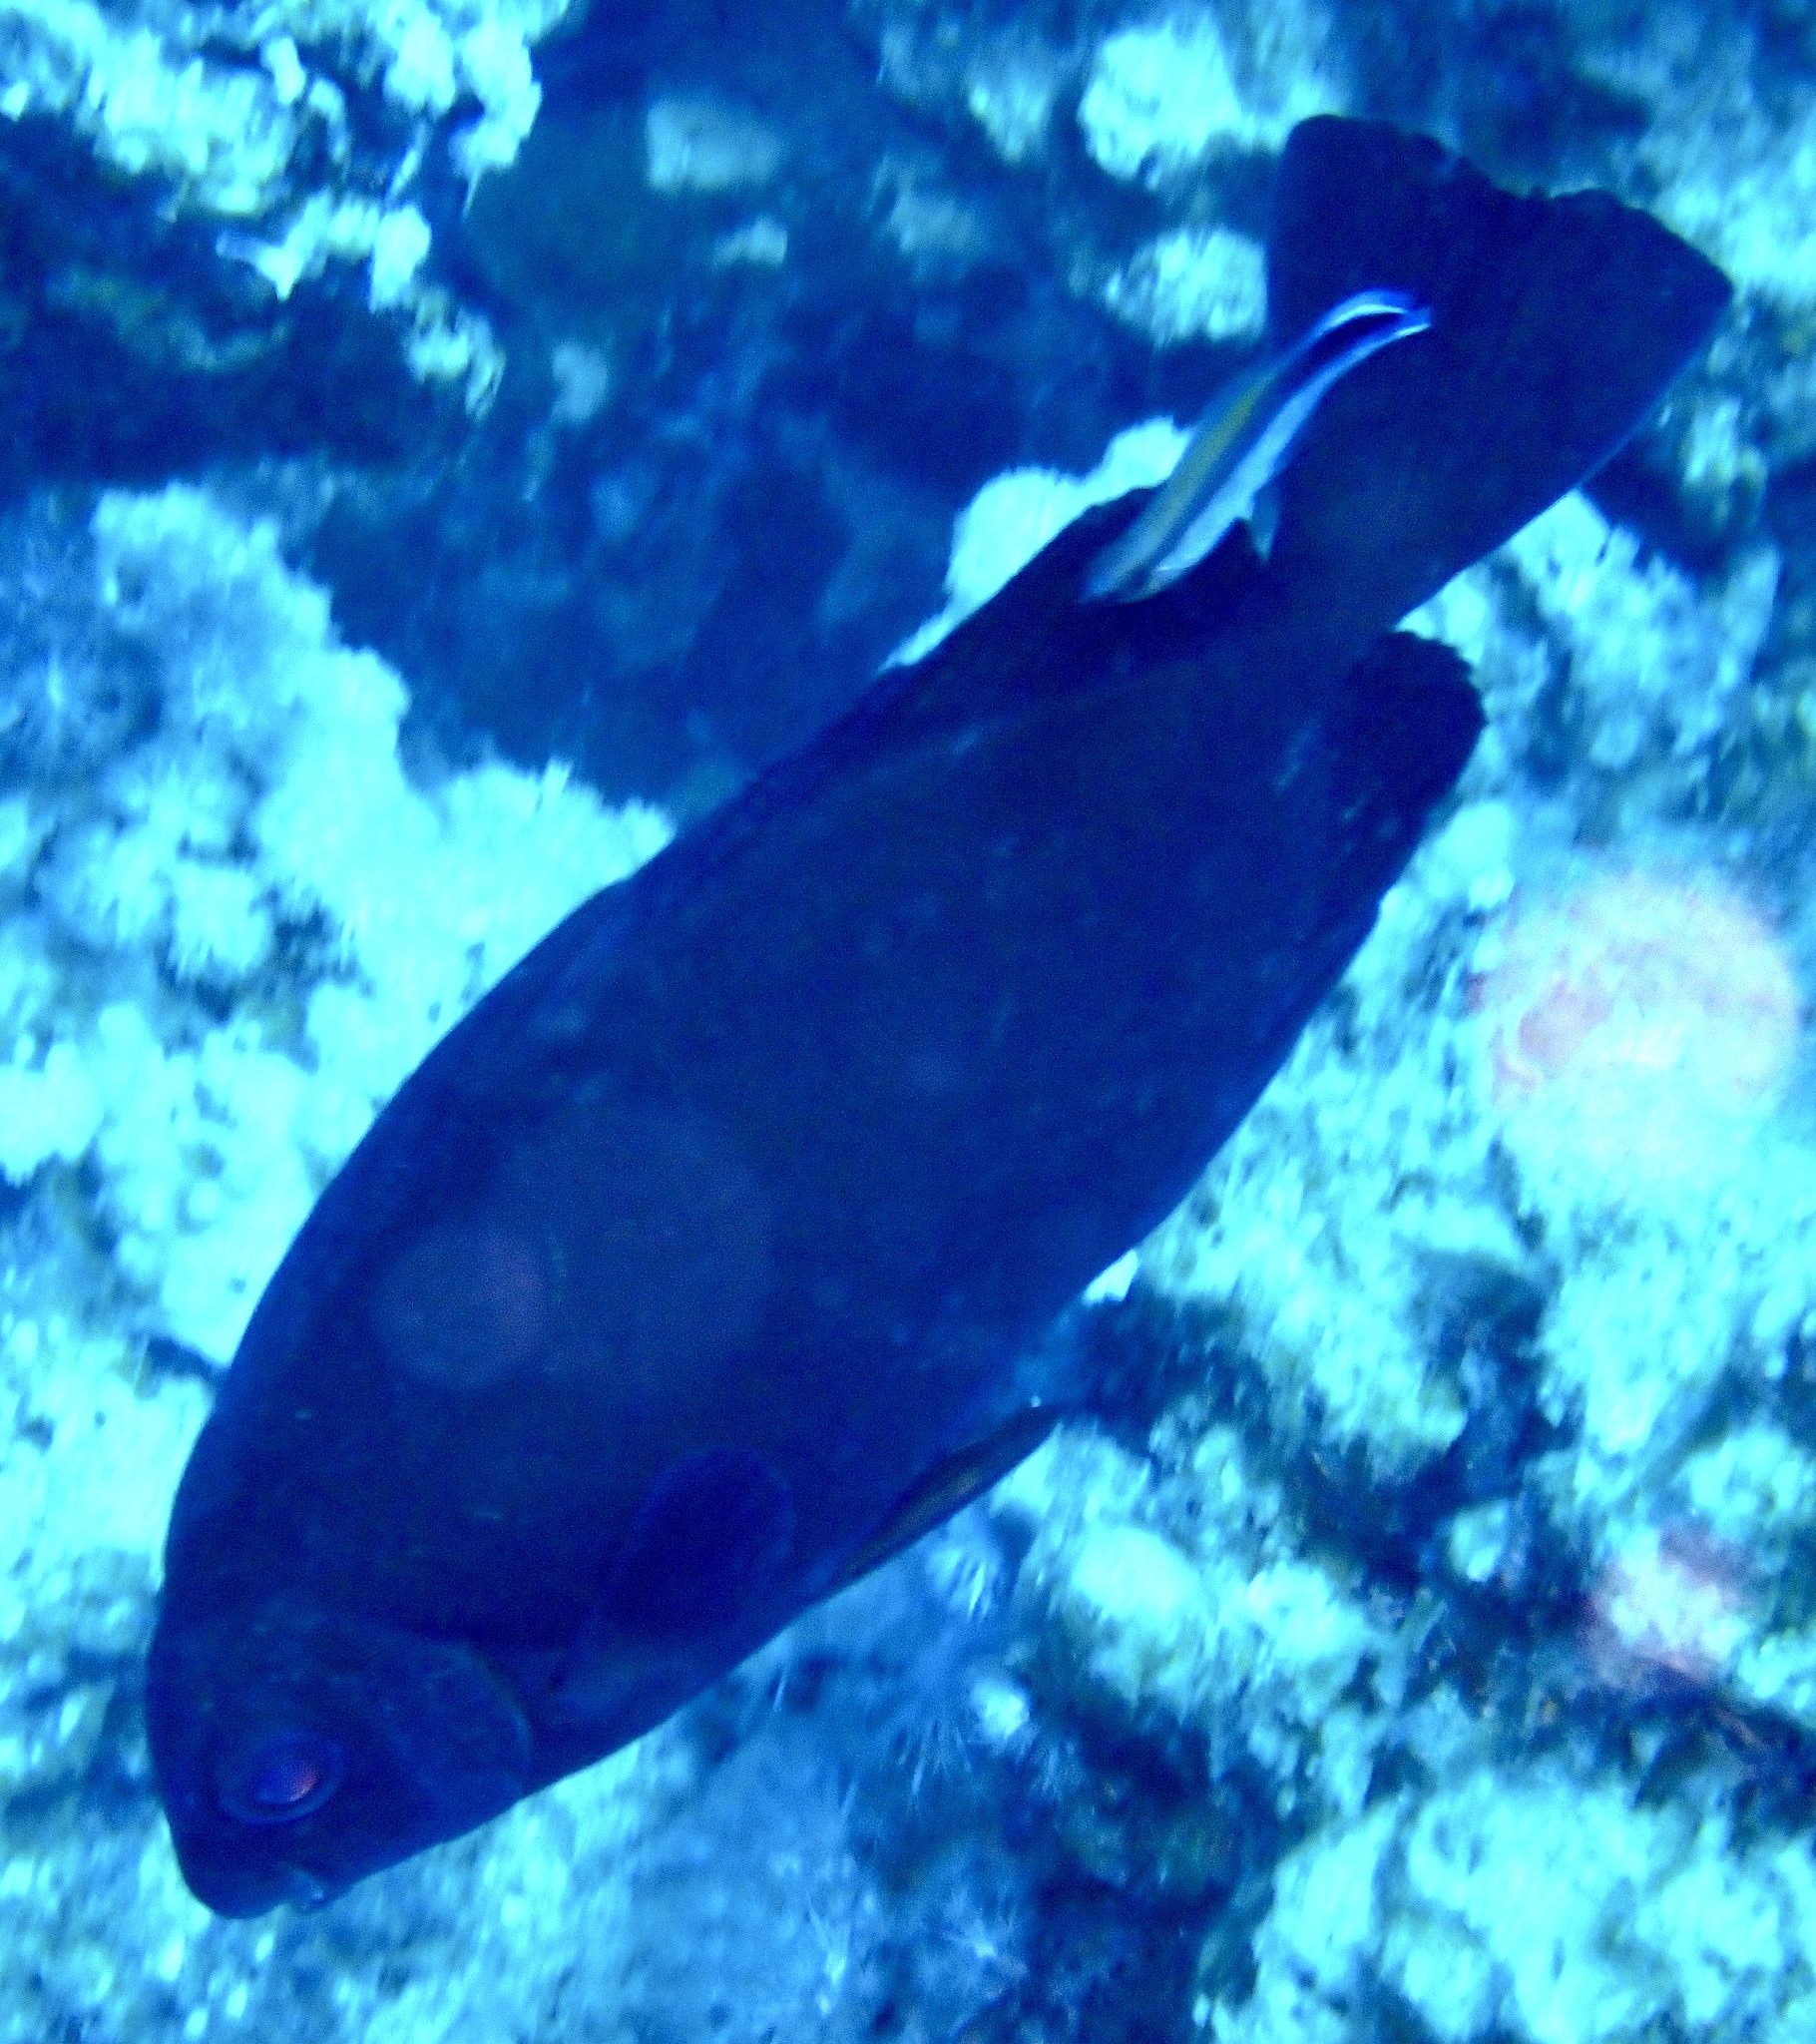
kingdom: Animalia
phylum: Chordata
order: Perciformes
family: Siganidae
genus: Siganus
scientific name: Siganus luridus
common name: Dusky spinefoot
